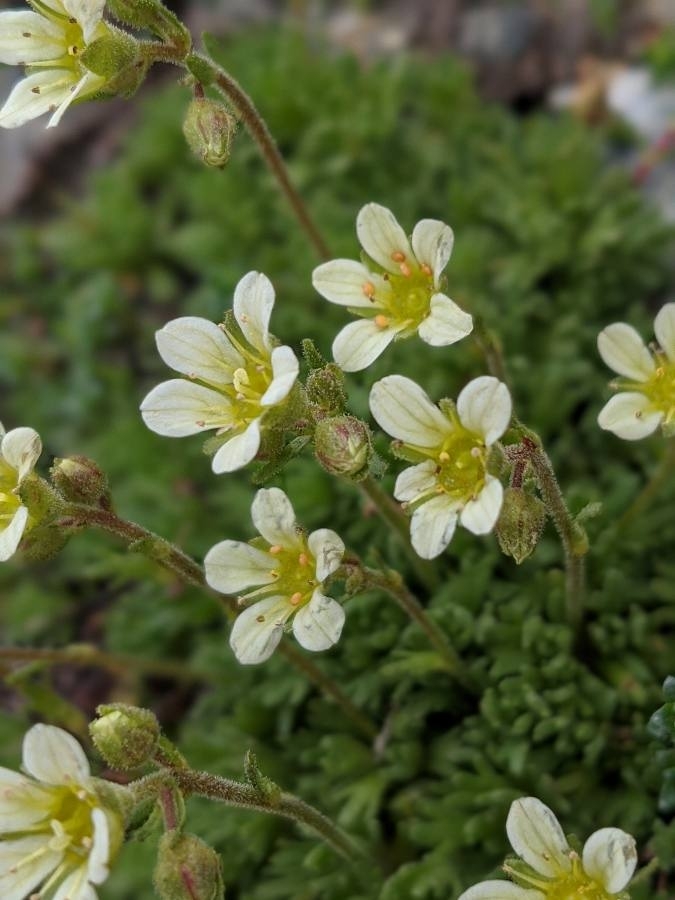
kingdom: Plantae
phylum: Tracheophyta
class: Magnoliopsida
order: Saxifragales
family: Saxifragaceae
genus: Saxifraga
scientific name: Saxifraga exarata
